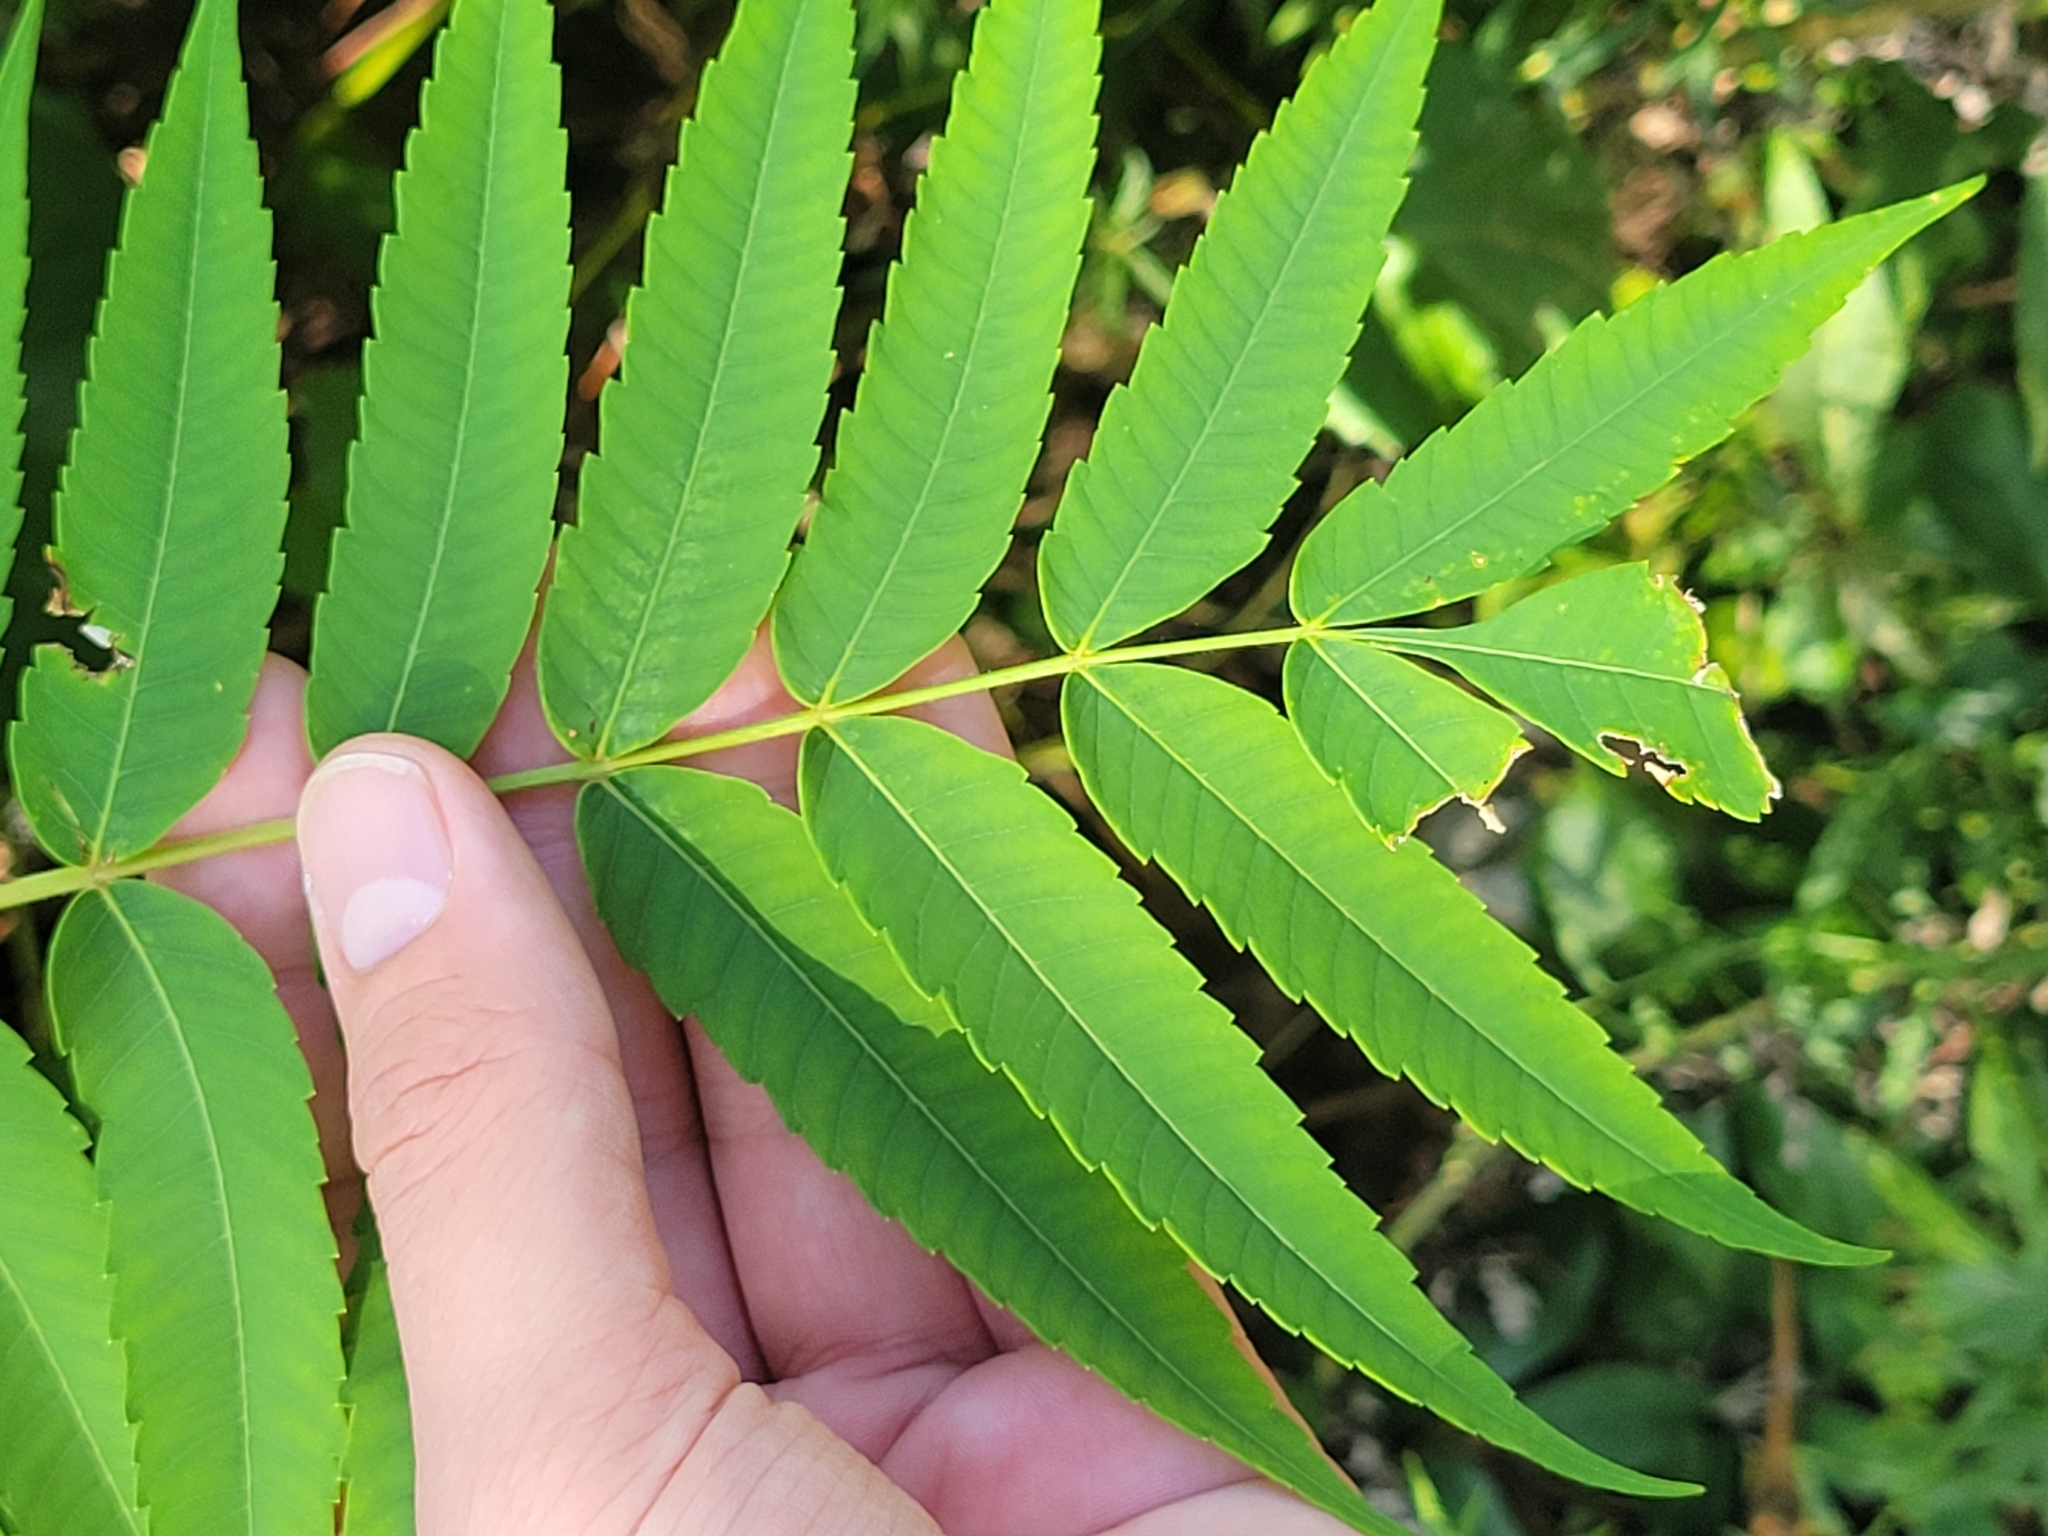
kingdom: Plantae
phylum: Tracheophyta
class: Magnoliopsida
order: Sapindales
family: Anacardiaceae
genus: Rhus
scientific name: Rhus typhina
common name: Staghorn sumac
